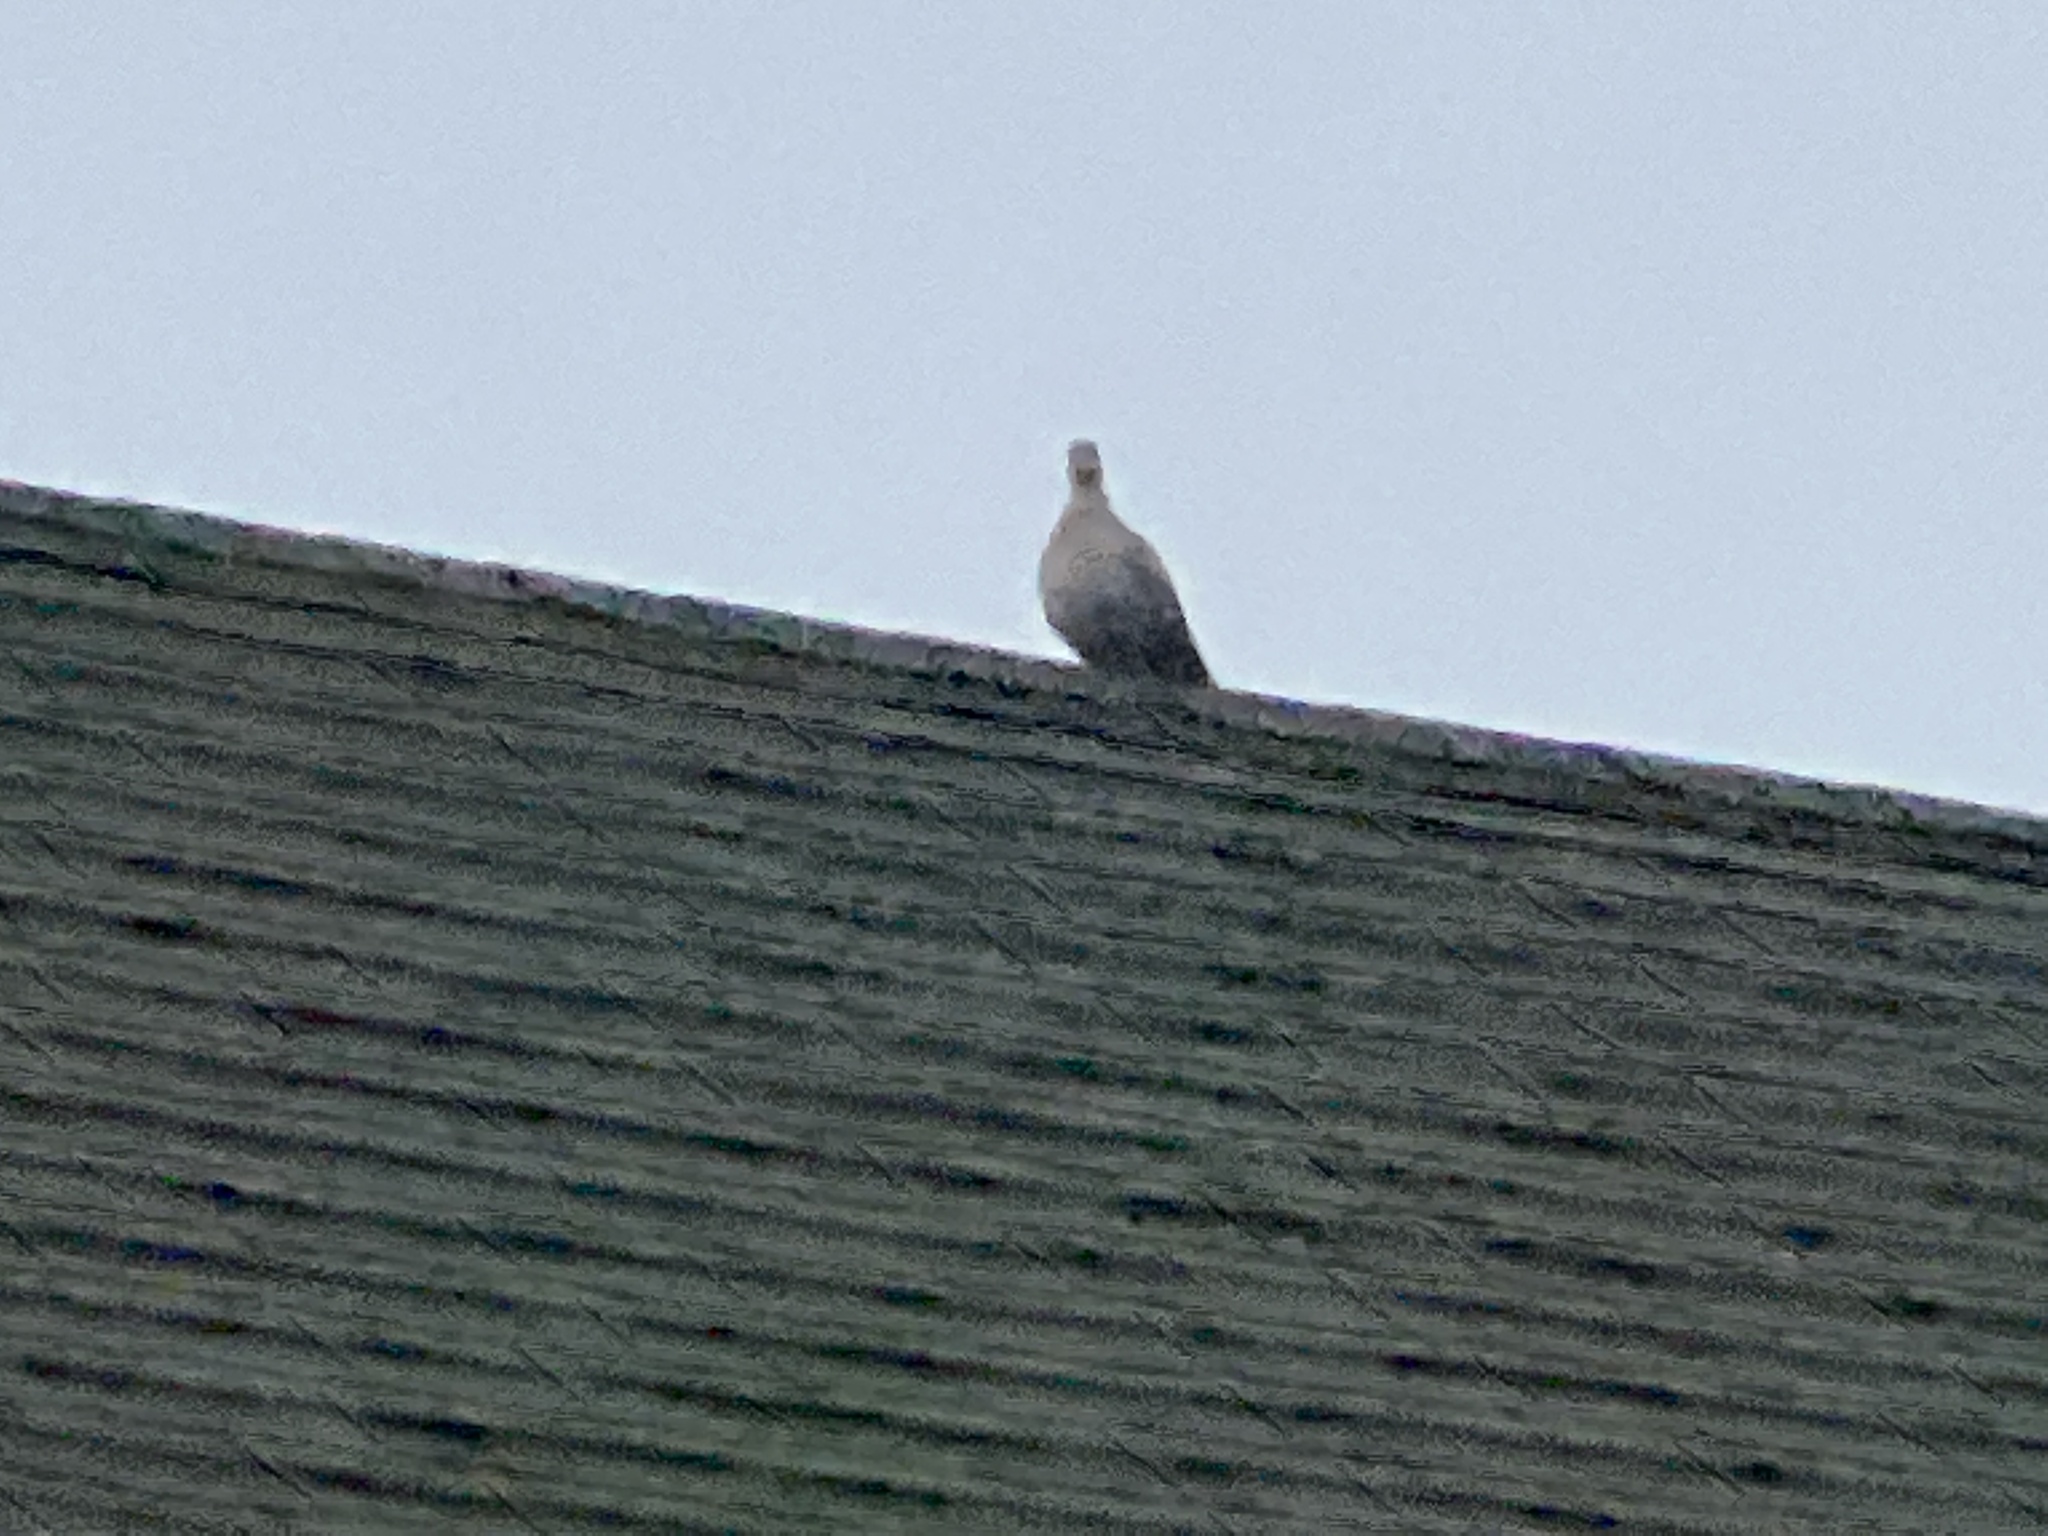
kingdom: Animalia
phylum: Chordata
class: Aves
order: Columbiformes
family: Columbidae
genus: Streptopelia
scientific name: Streptopelia decaocto
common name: Eurasian collared dove
